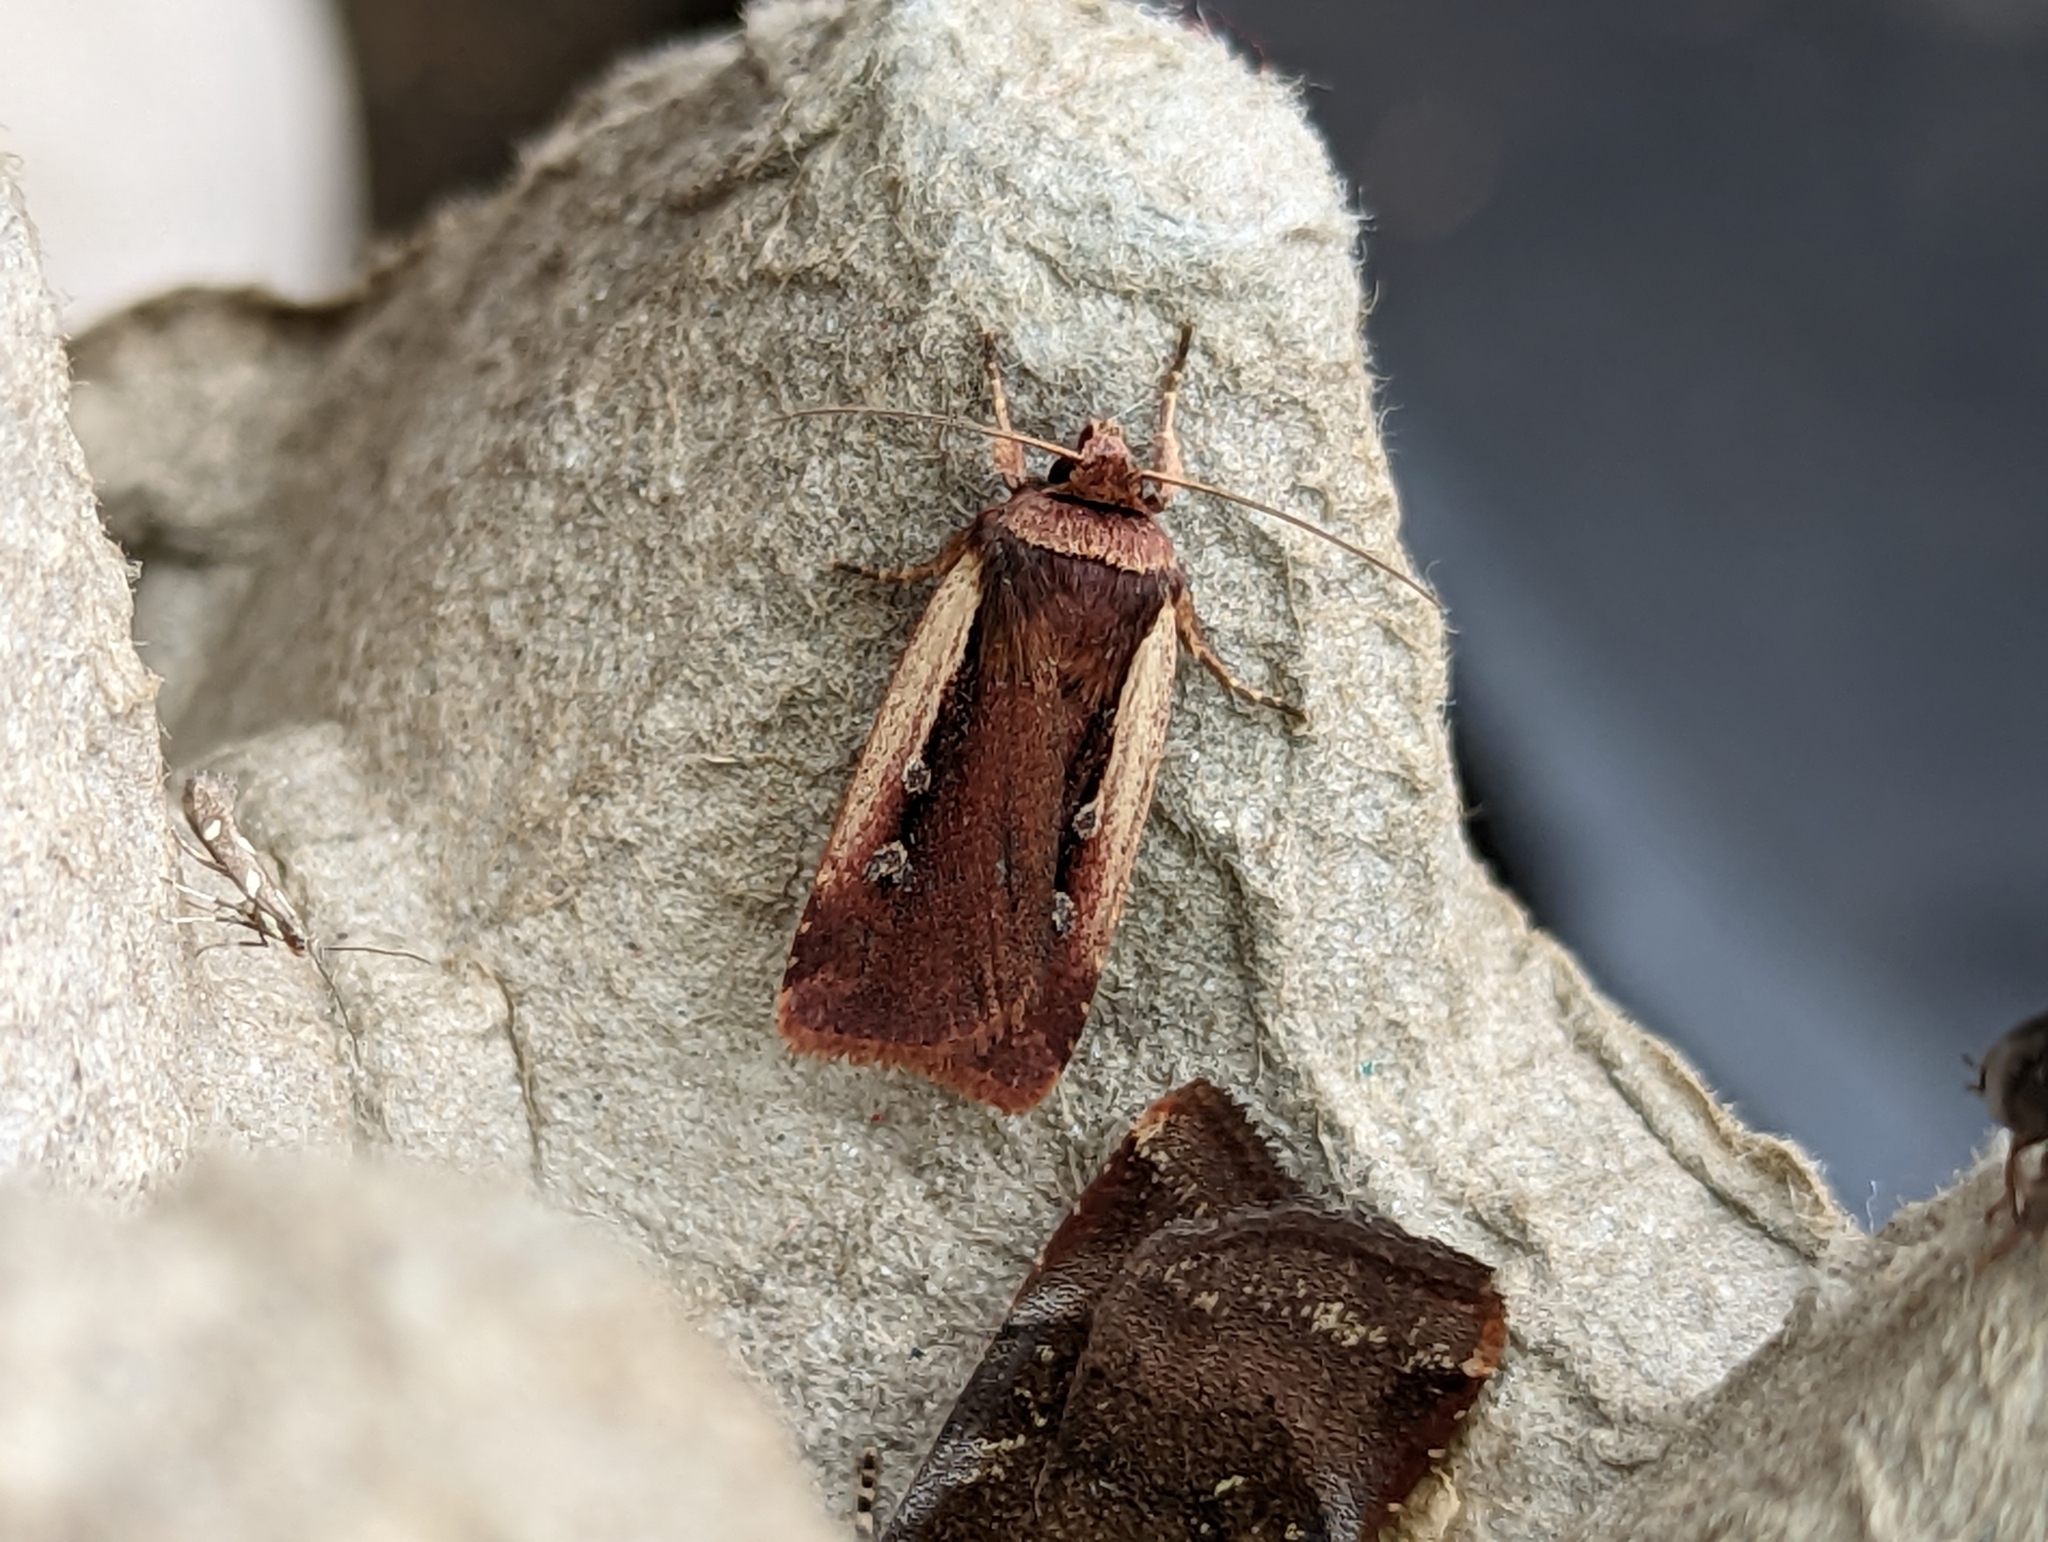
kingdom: Animalia
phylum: Arthropoda
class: Insecta
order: Lepidoptera
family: Noctuidae
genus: Ochropleura
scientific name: Ochropleura plecta
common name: Flame shoulder
